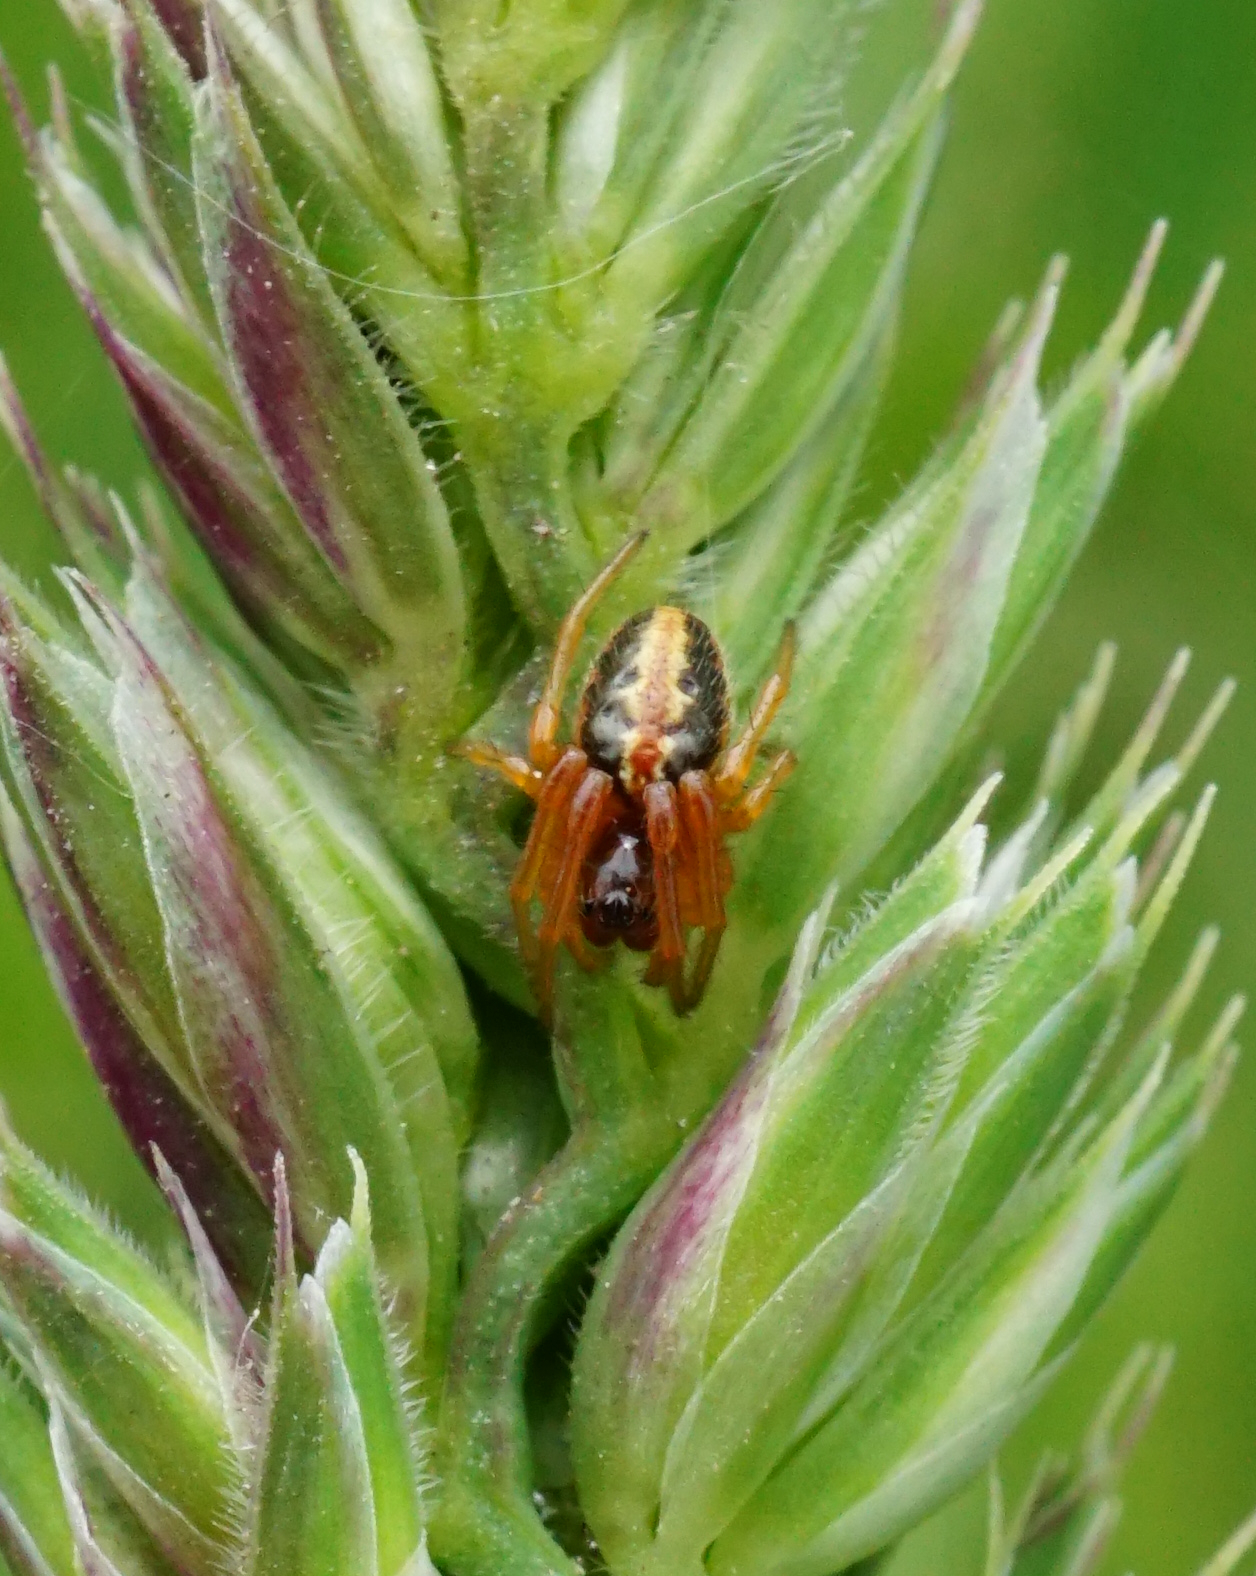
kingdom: Animalia
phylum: Arthropoda
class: Arachnida
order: Araneae
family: Araneidae
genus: Hypsosinga
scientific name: Hypsosinga heri
